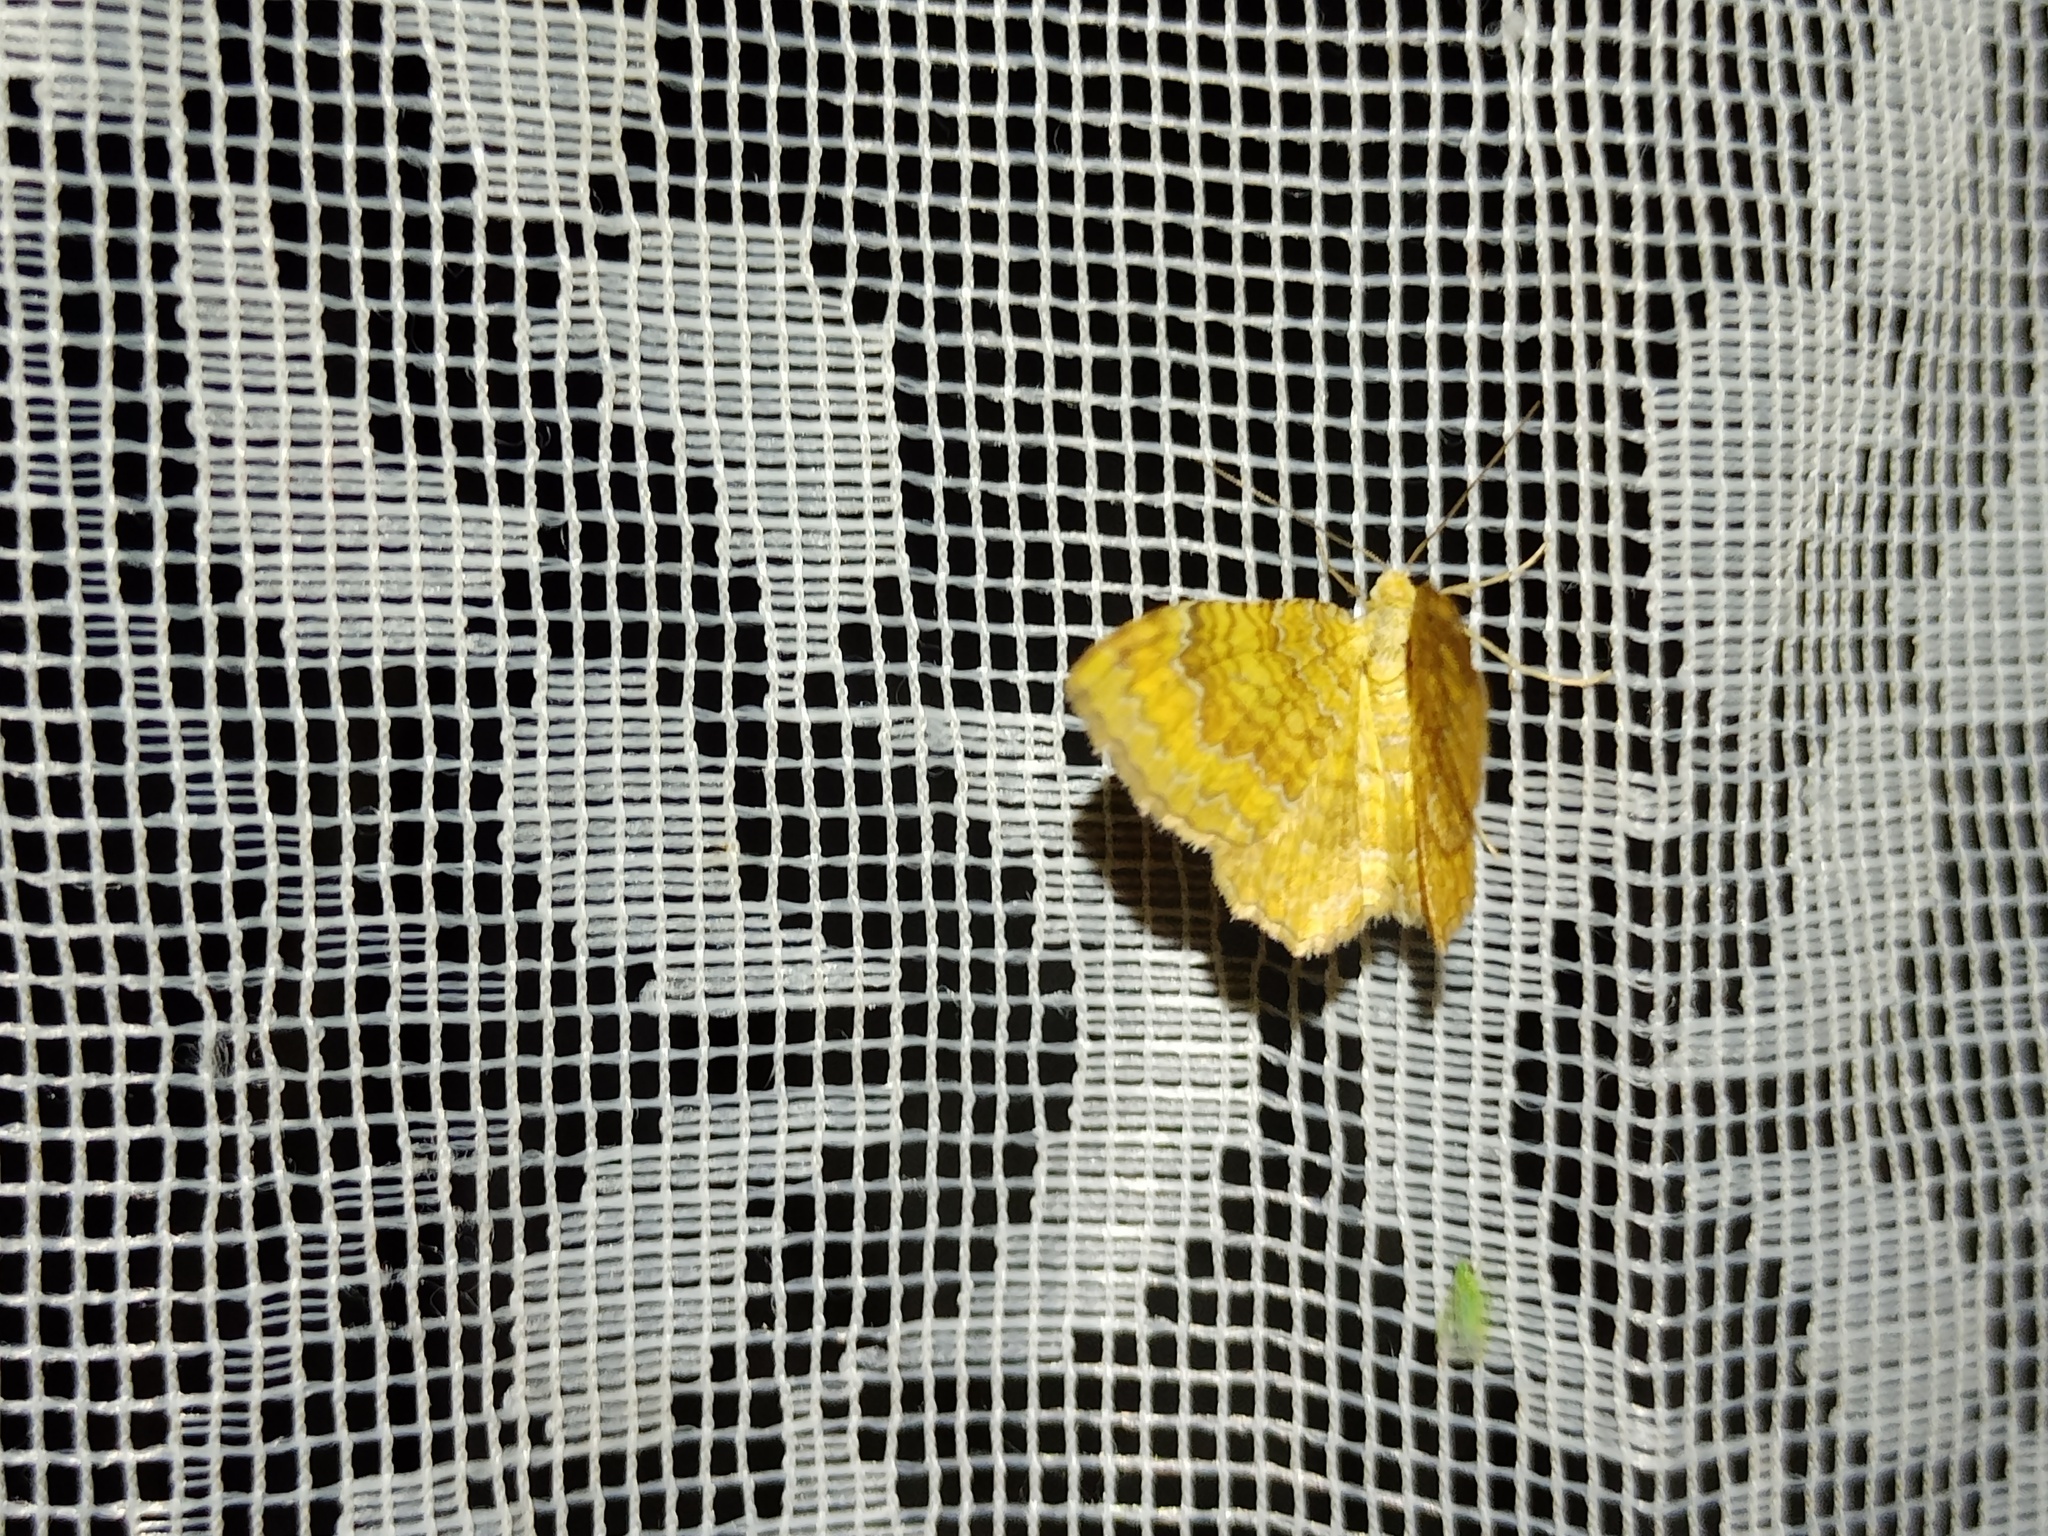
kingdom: Animalia
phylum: Arthropoda
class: Insecta
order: Lepidoptera
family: Geometridae
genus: Camptogramma
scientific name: Camptogramma bilineata
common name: Yellow shell
